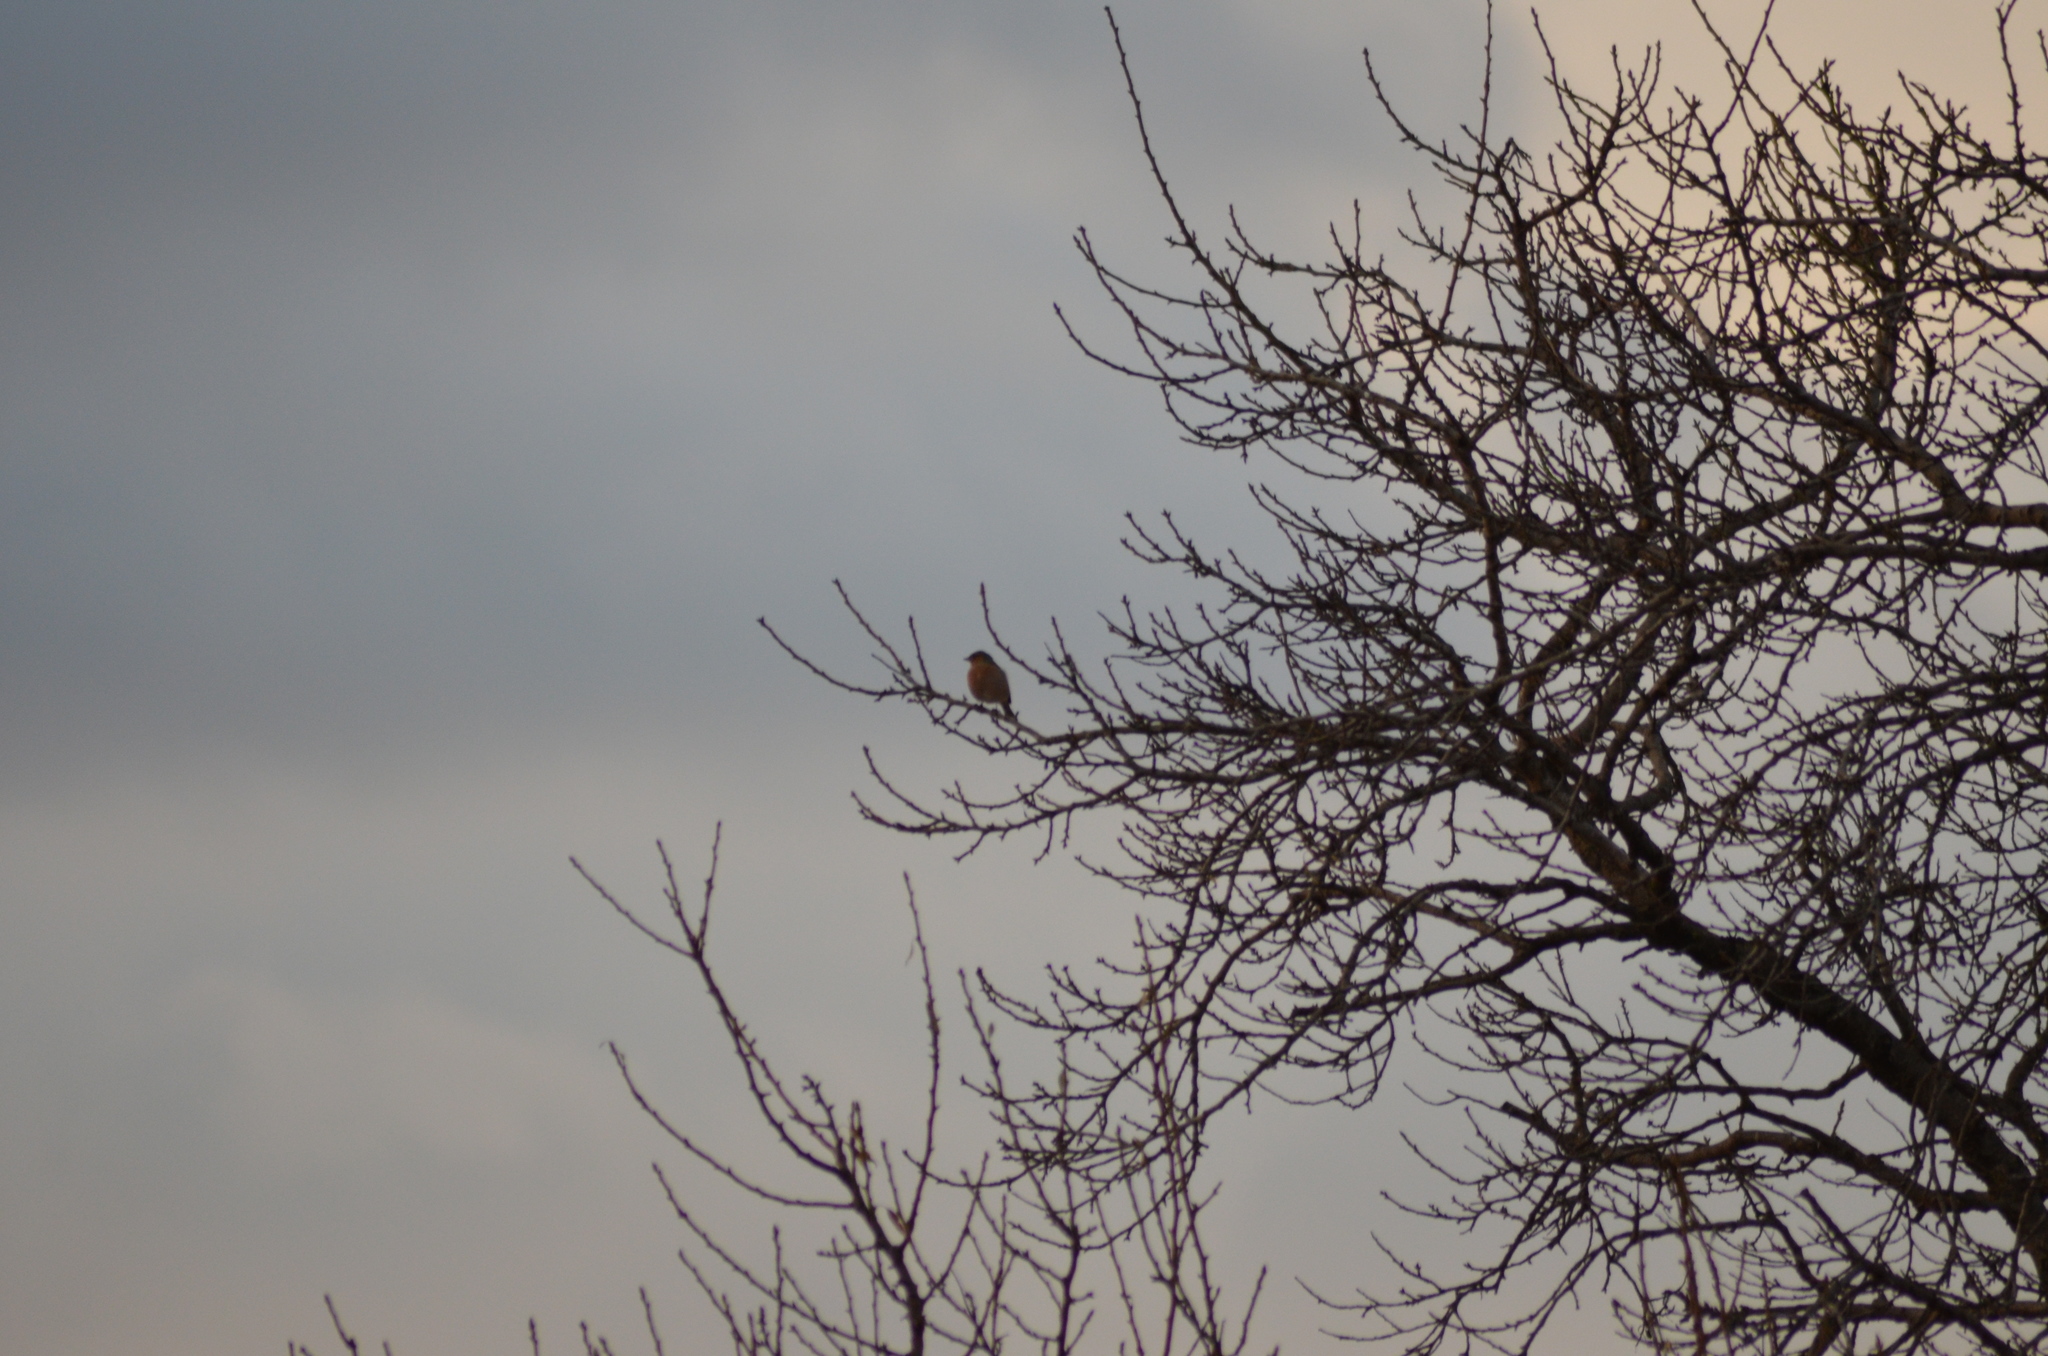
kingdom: Animalia
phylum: Chordata
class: Aves
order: Passeriformes
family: Fringillidae
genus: Fringilla
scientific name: Fringilla coelebs
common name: Common chaffinch
